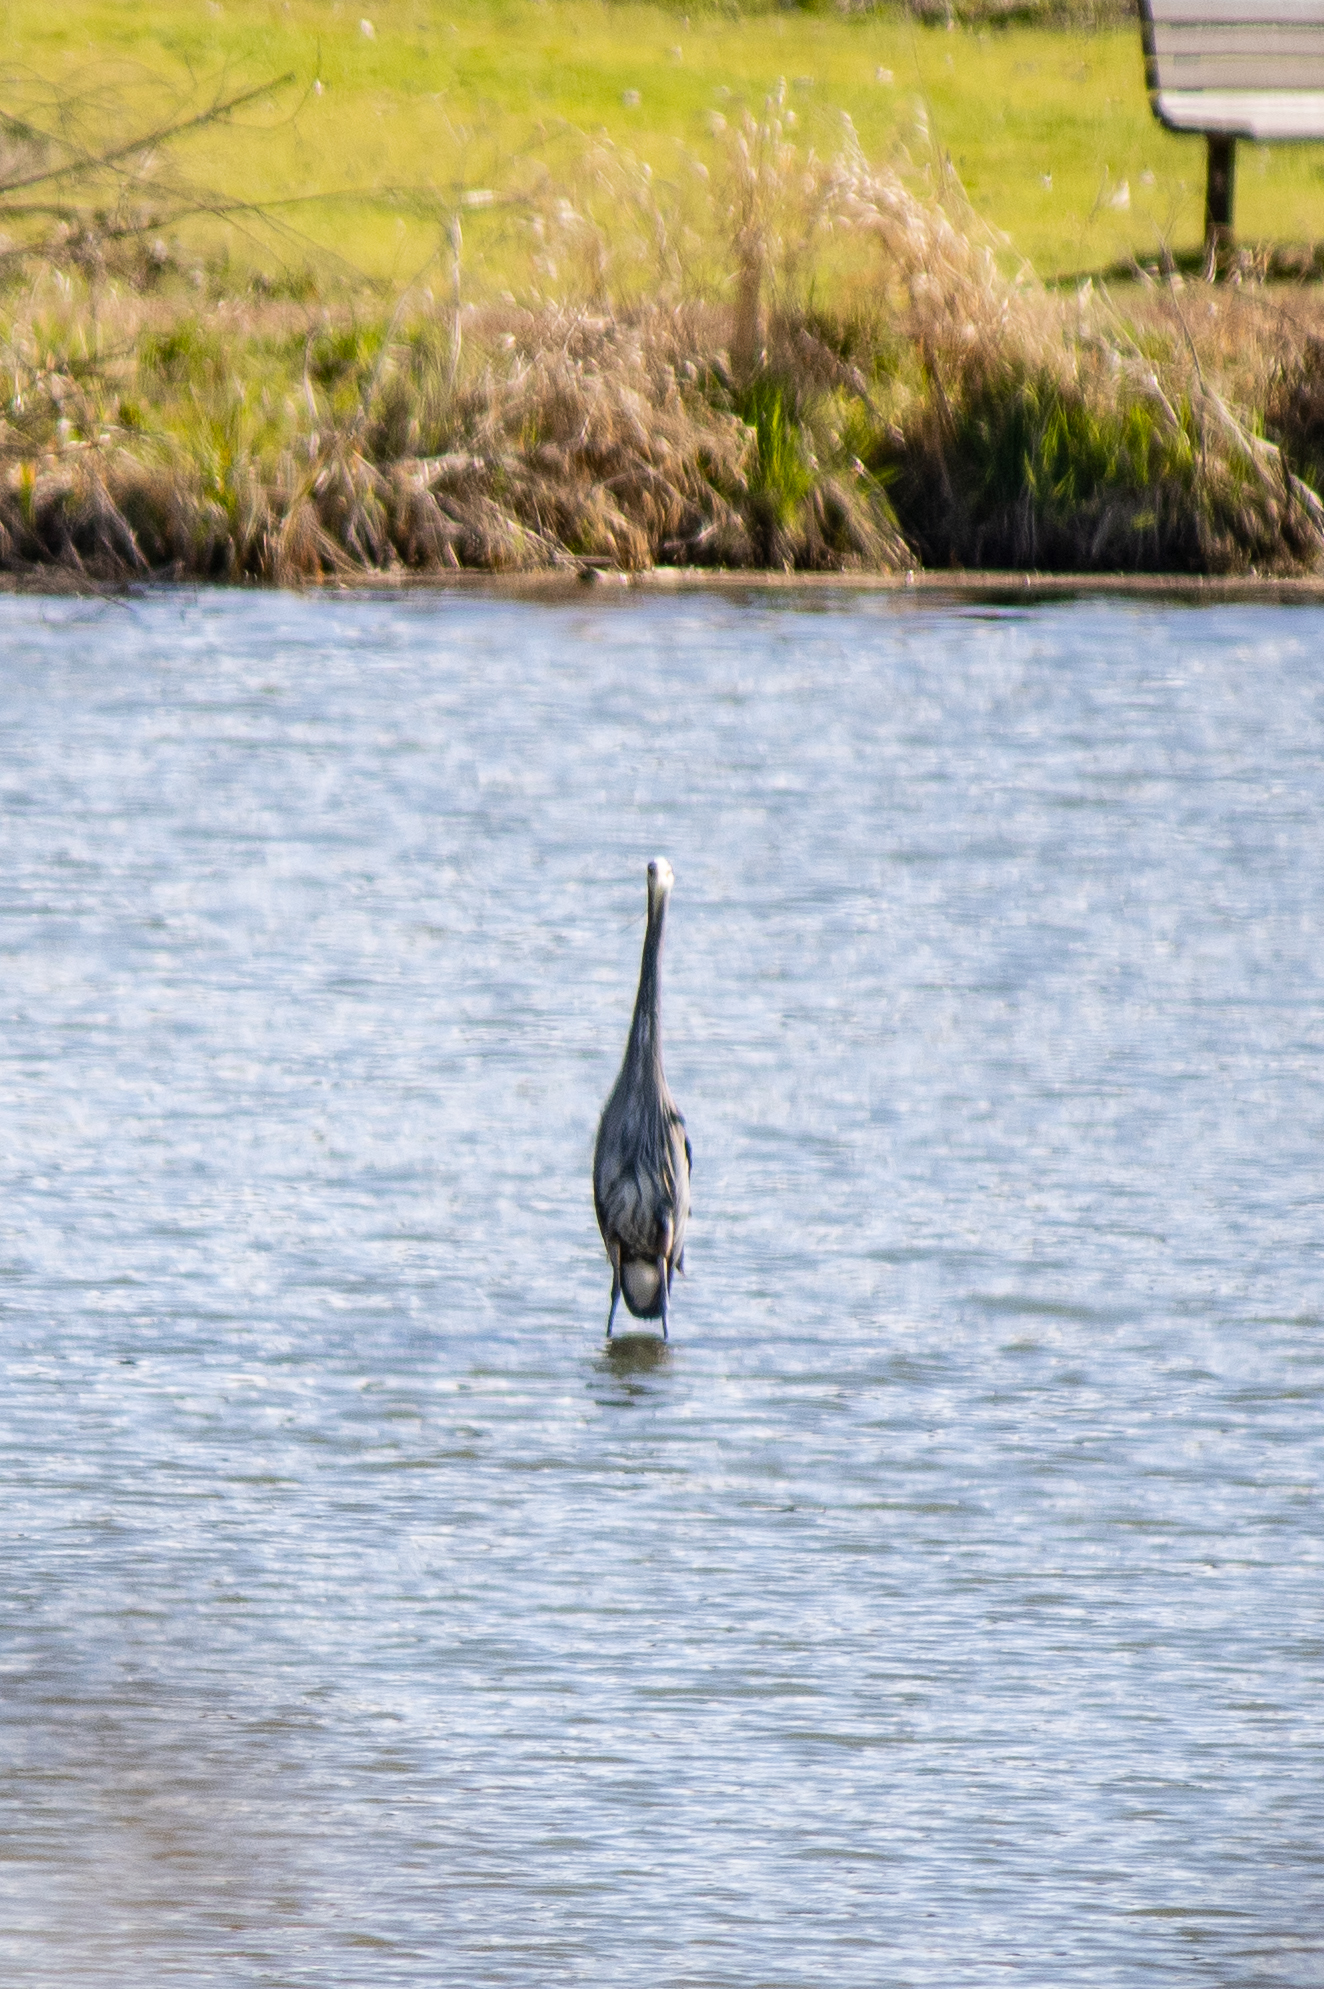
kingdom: Animalia
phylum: Chordata
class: Aves
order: Pelecaniformes
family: Ardeidae
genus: Ardea
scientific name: Ardea herodias
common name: Great blue heron
